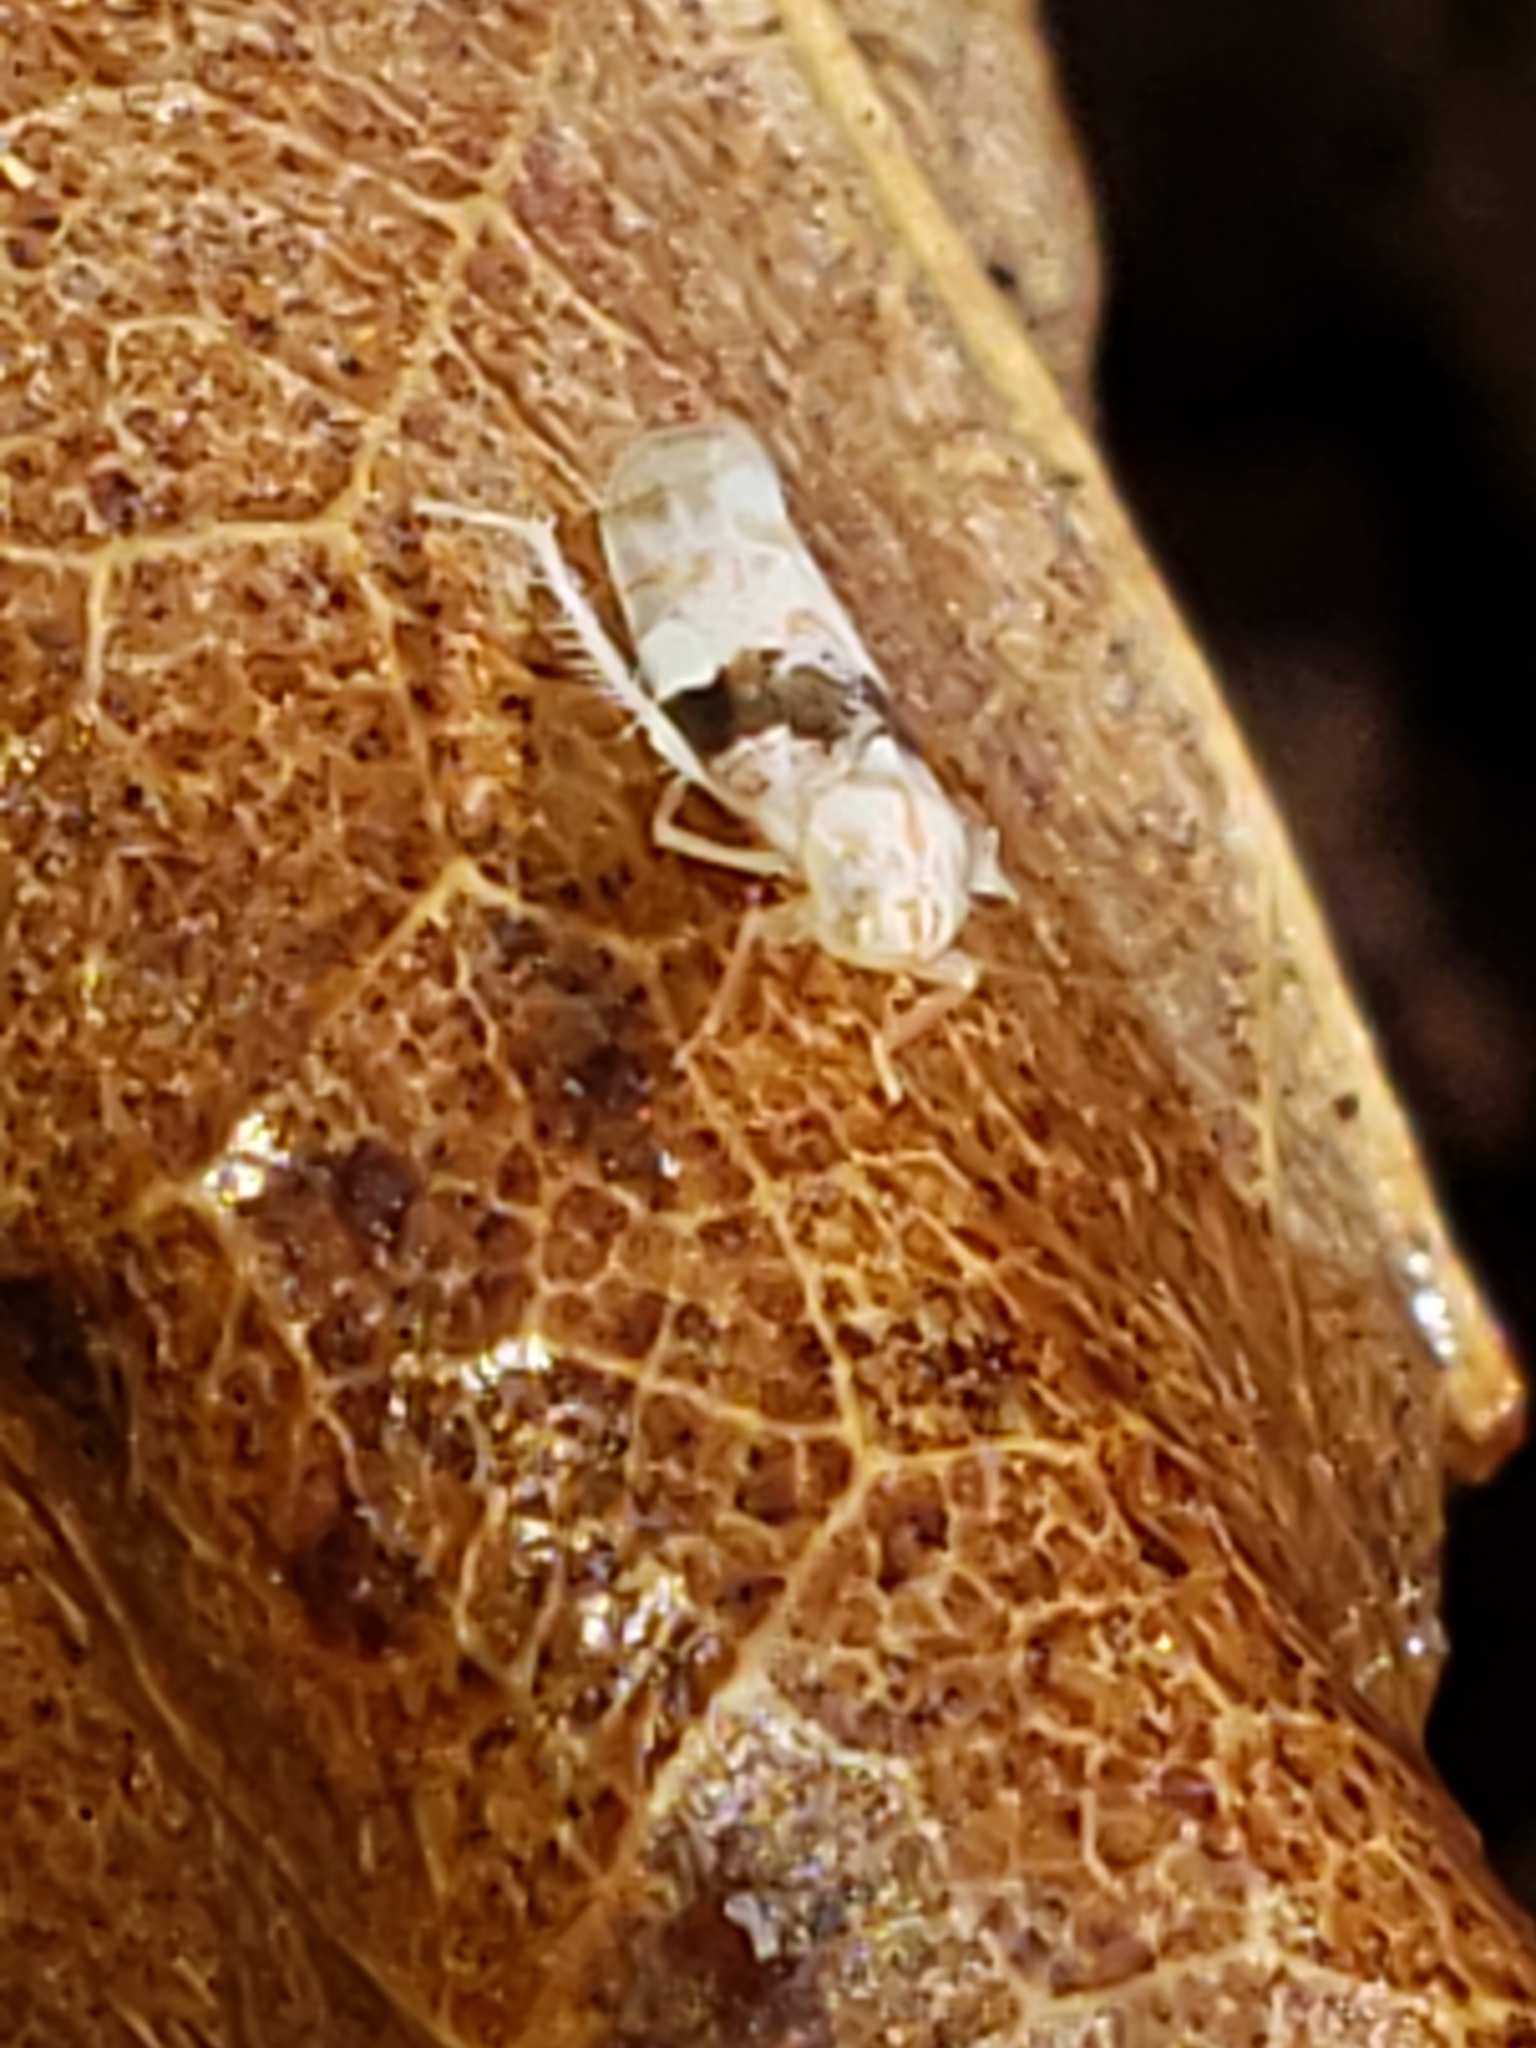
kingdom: Animalia
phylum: Arthropoda
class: Insecta
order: Hemiptera
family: Cicadellidae
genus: Hymetta
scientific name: Hymetta anthisma
